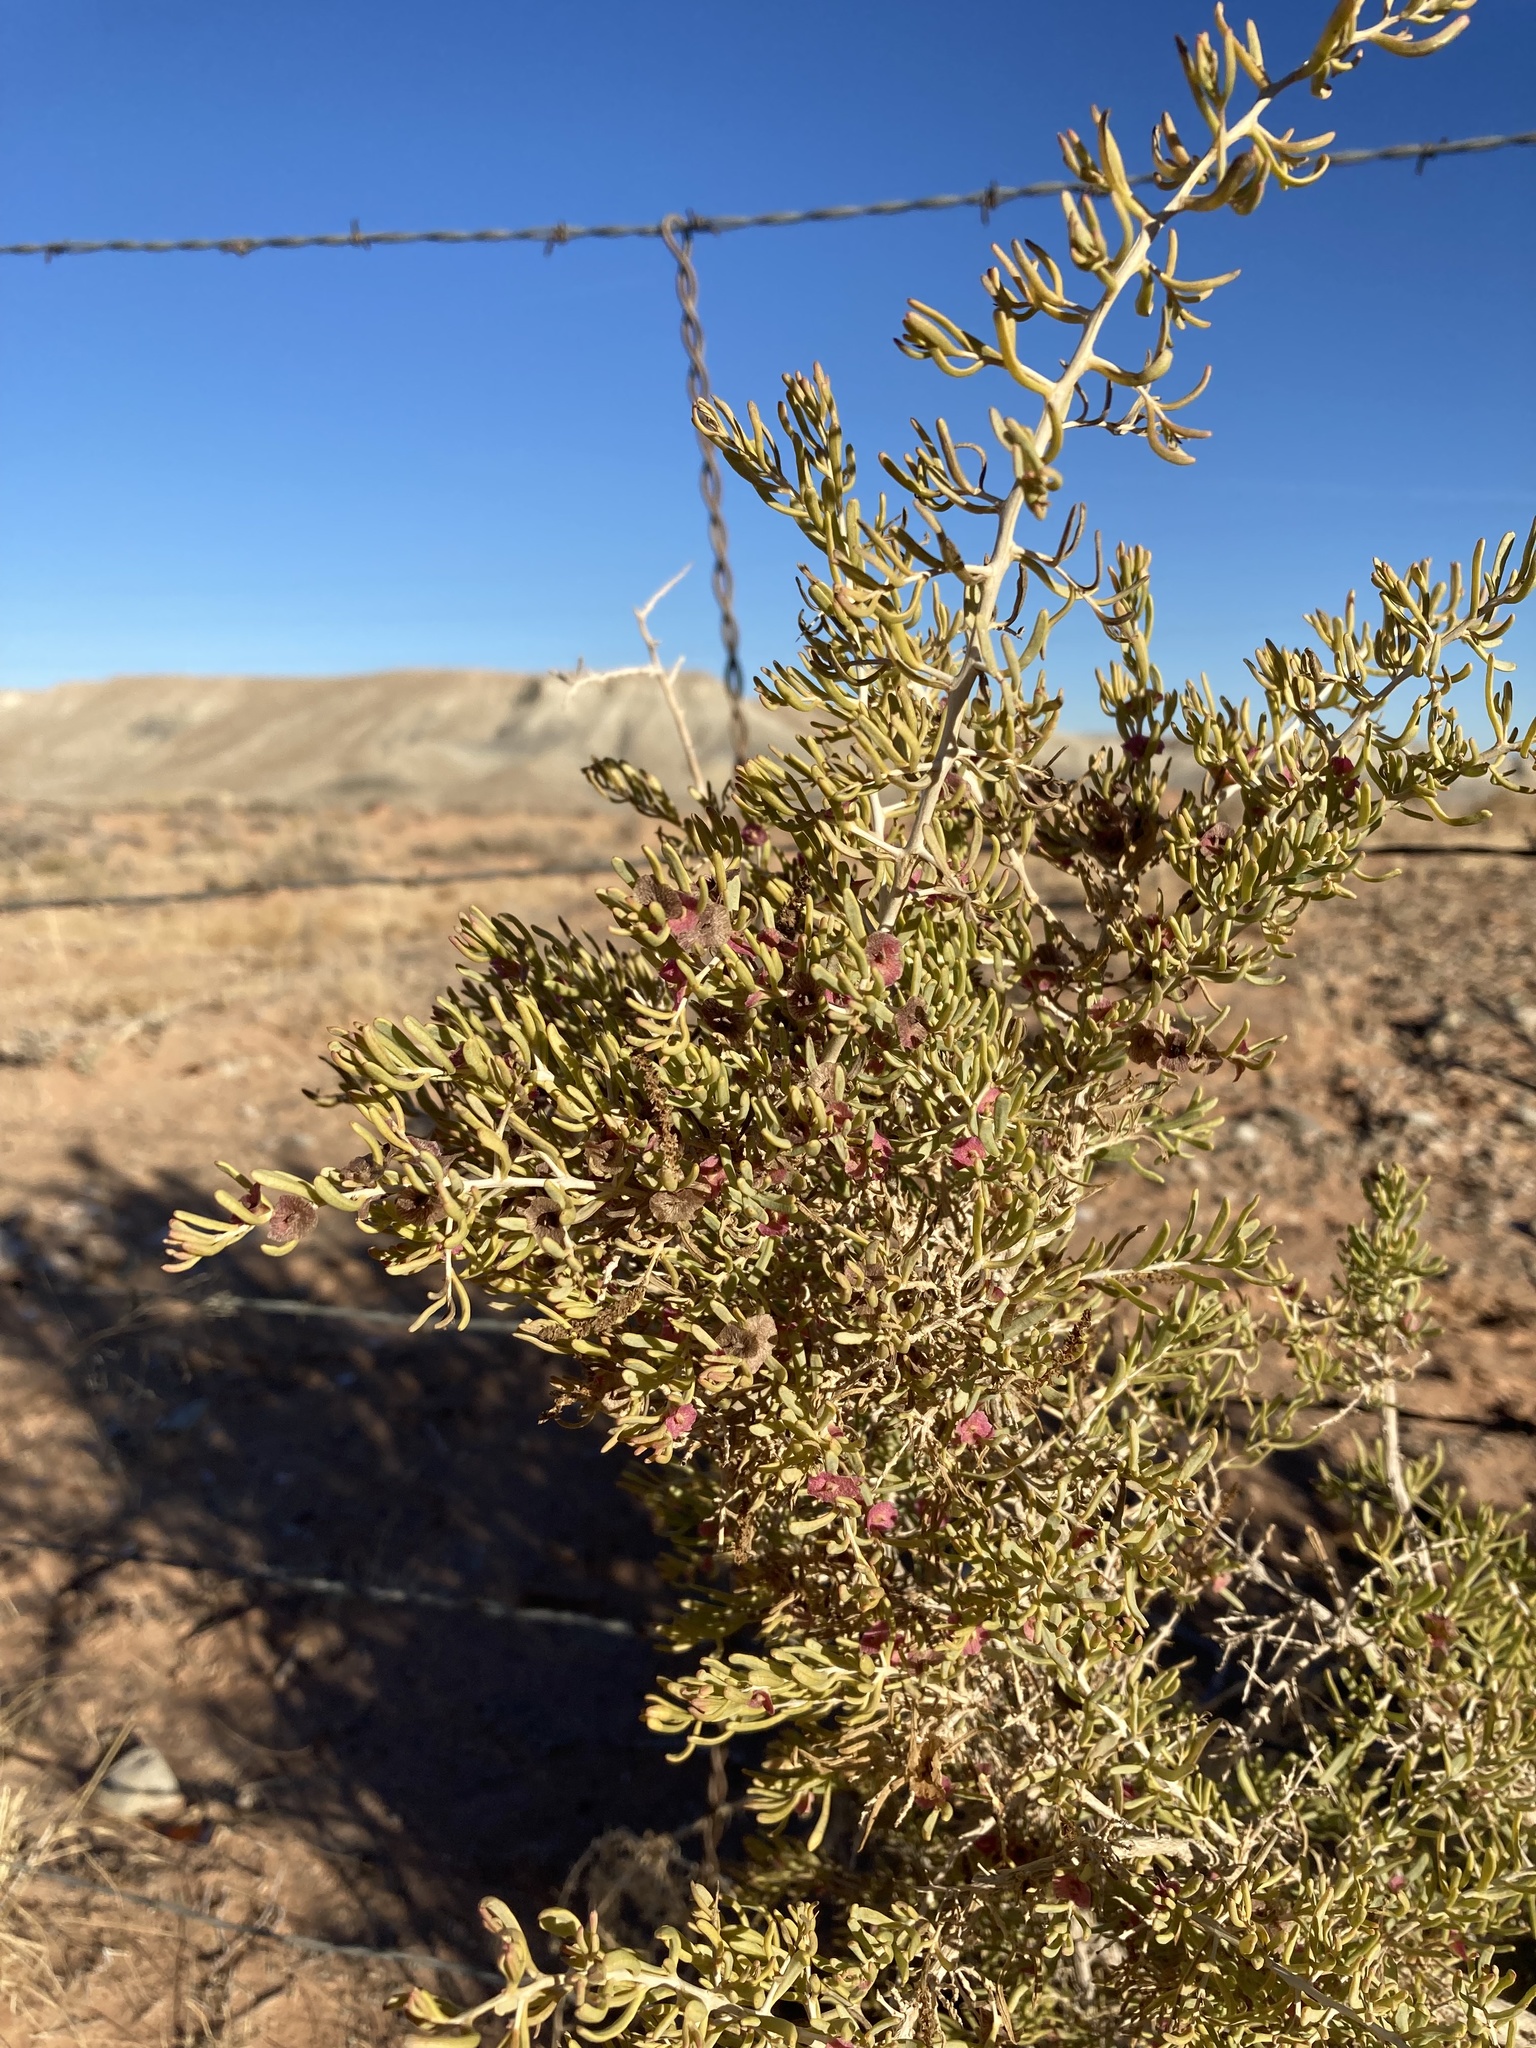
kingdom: Plantae
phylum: Tracheophyta
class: Magnoliopsida
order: Caryophyllales
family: Sarcobataceae
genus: Sarcobatus
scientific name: Sarcobatus vermiculatus
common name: Greasewood
